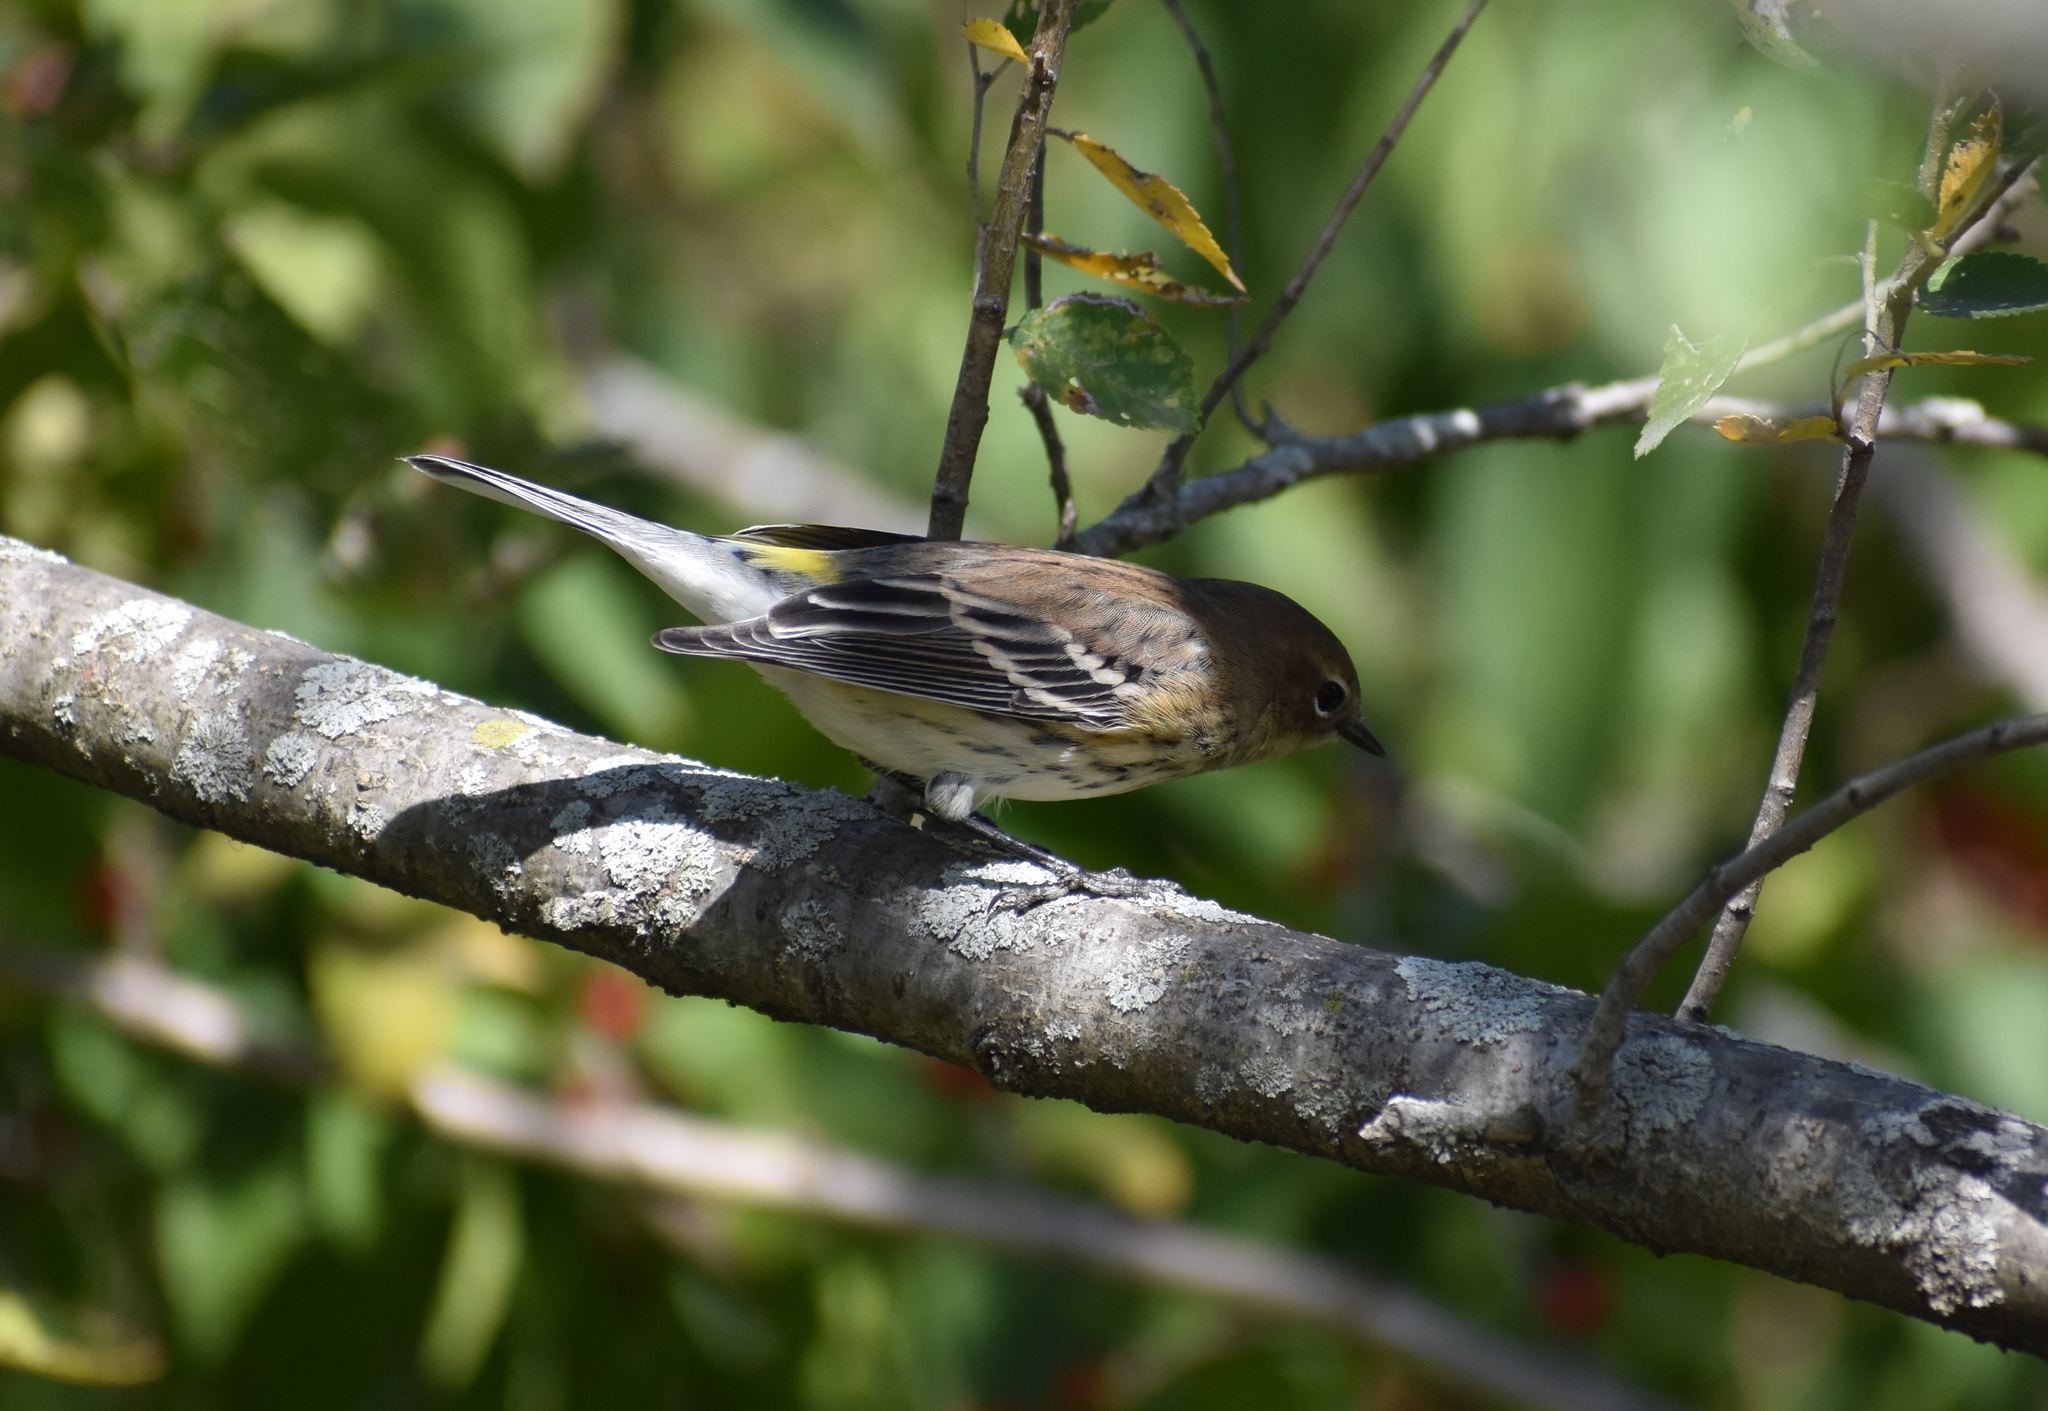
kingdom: Animalia
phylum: Chordata
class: Aves
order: Passeriformes
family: Parulidae
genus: Setophaga
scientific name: Setophaga coronata
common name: Myrtle warbler
